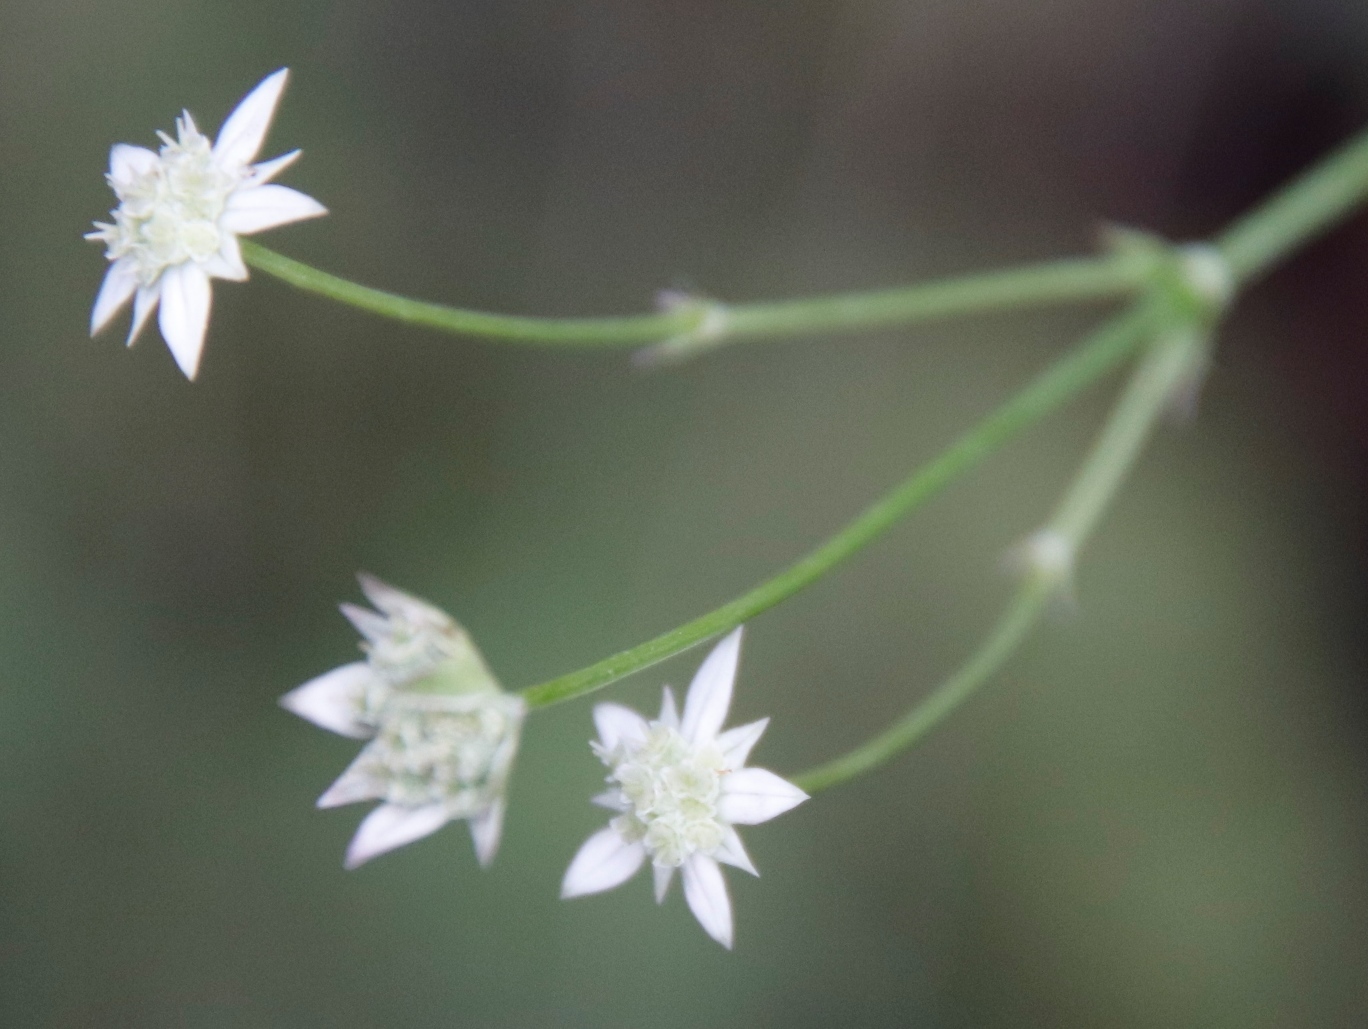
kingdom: Plantae
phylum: Tracheophyta
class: Magnoliopsida
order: Apiales
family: Apiaceae
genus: Alepidea
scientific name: Alepidea delicatula
